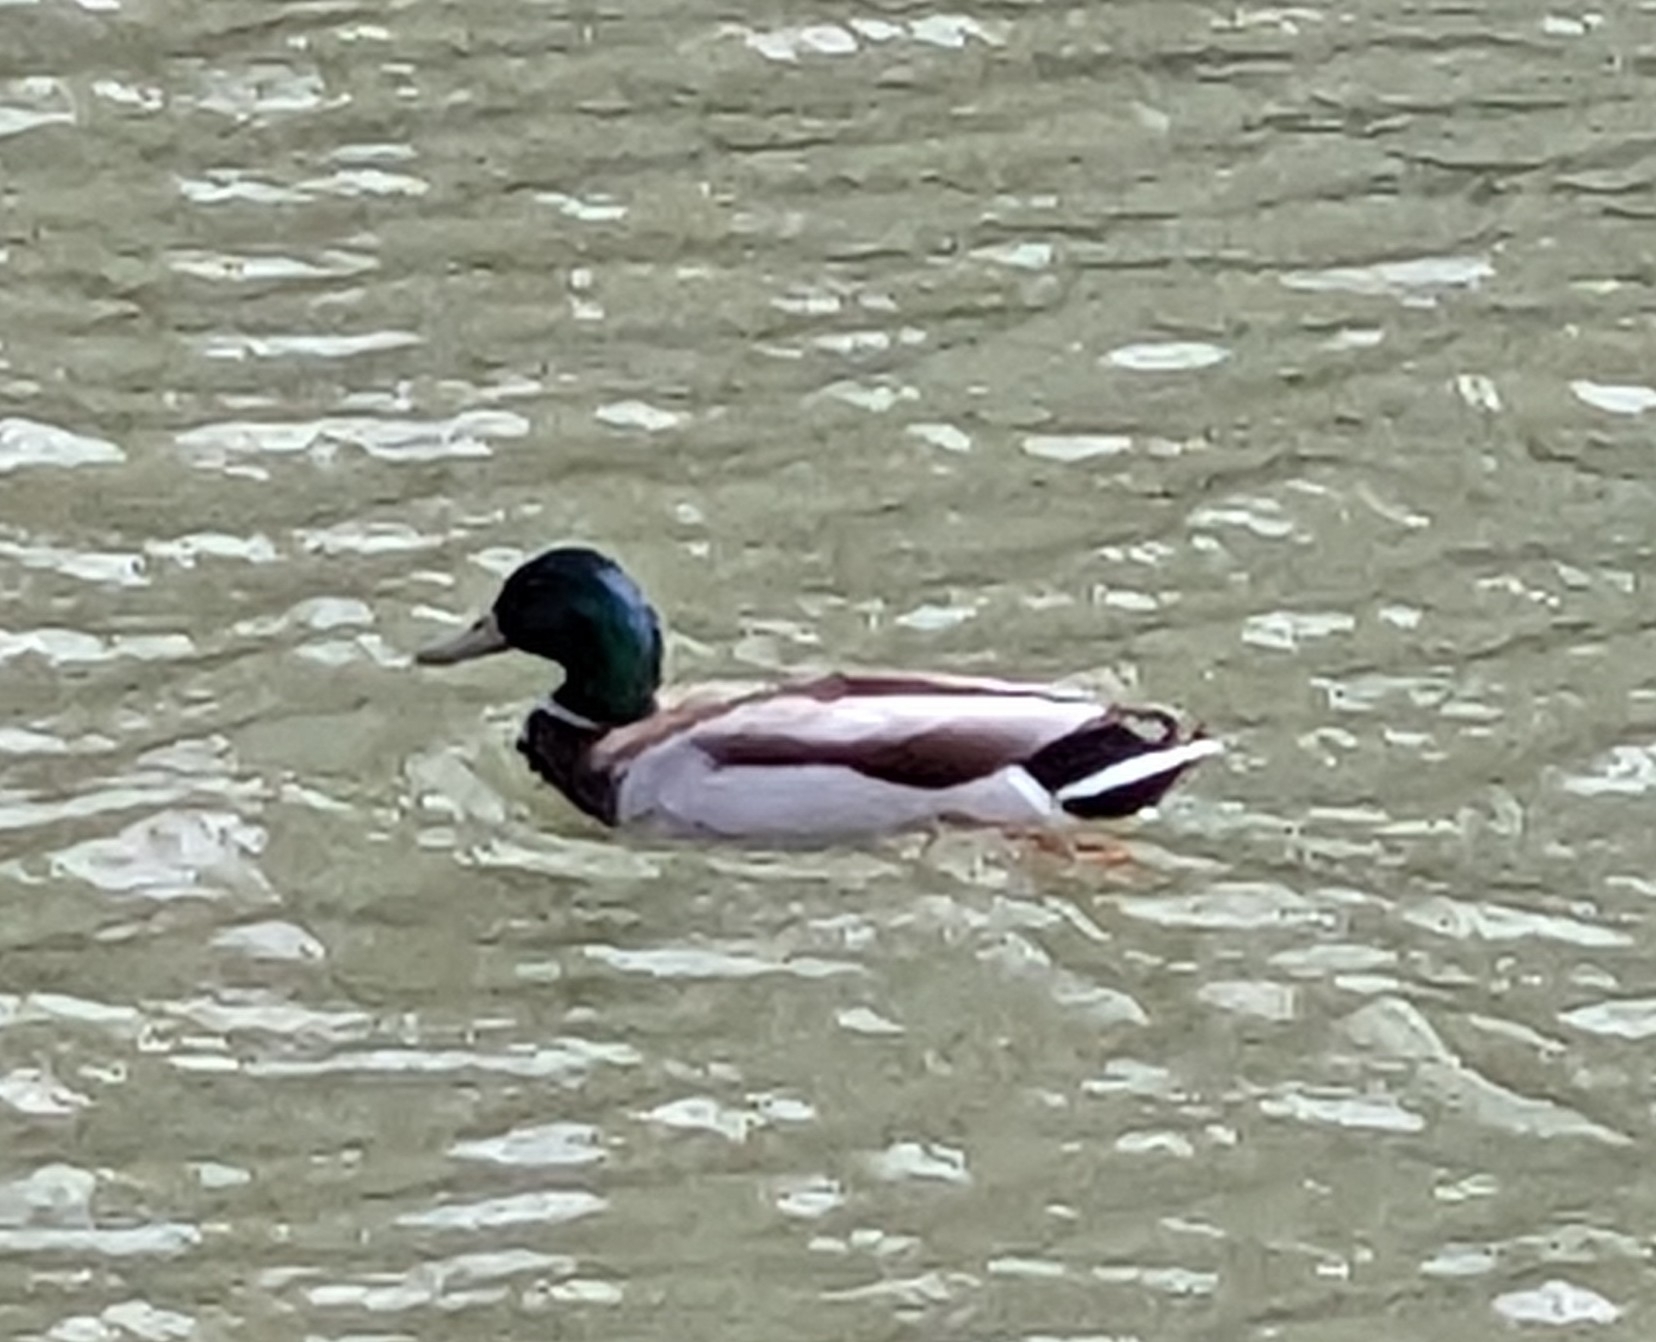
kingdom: Animalia
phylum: Chordata
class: Aves
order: Anseriformes
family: Anatidae
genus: Anas
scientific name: Anas platyrhynchos
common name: Mallard
